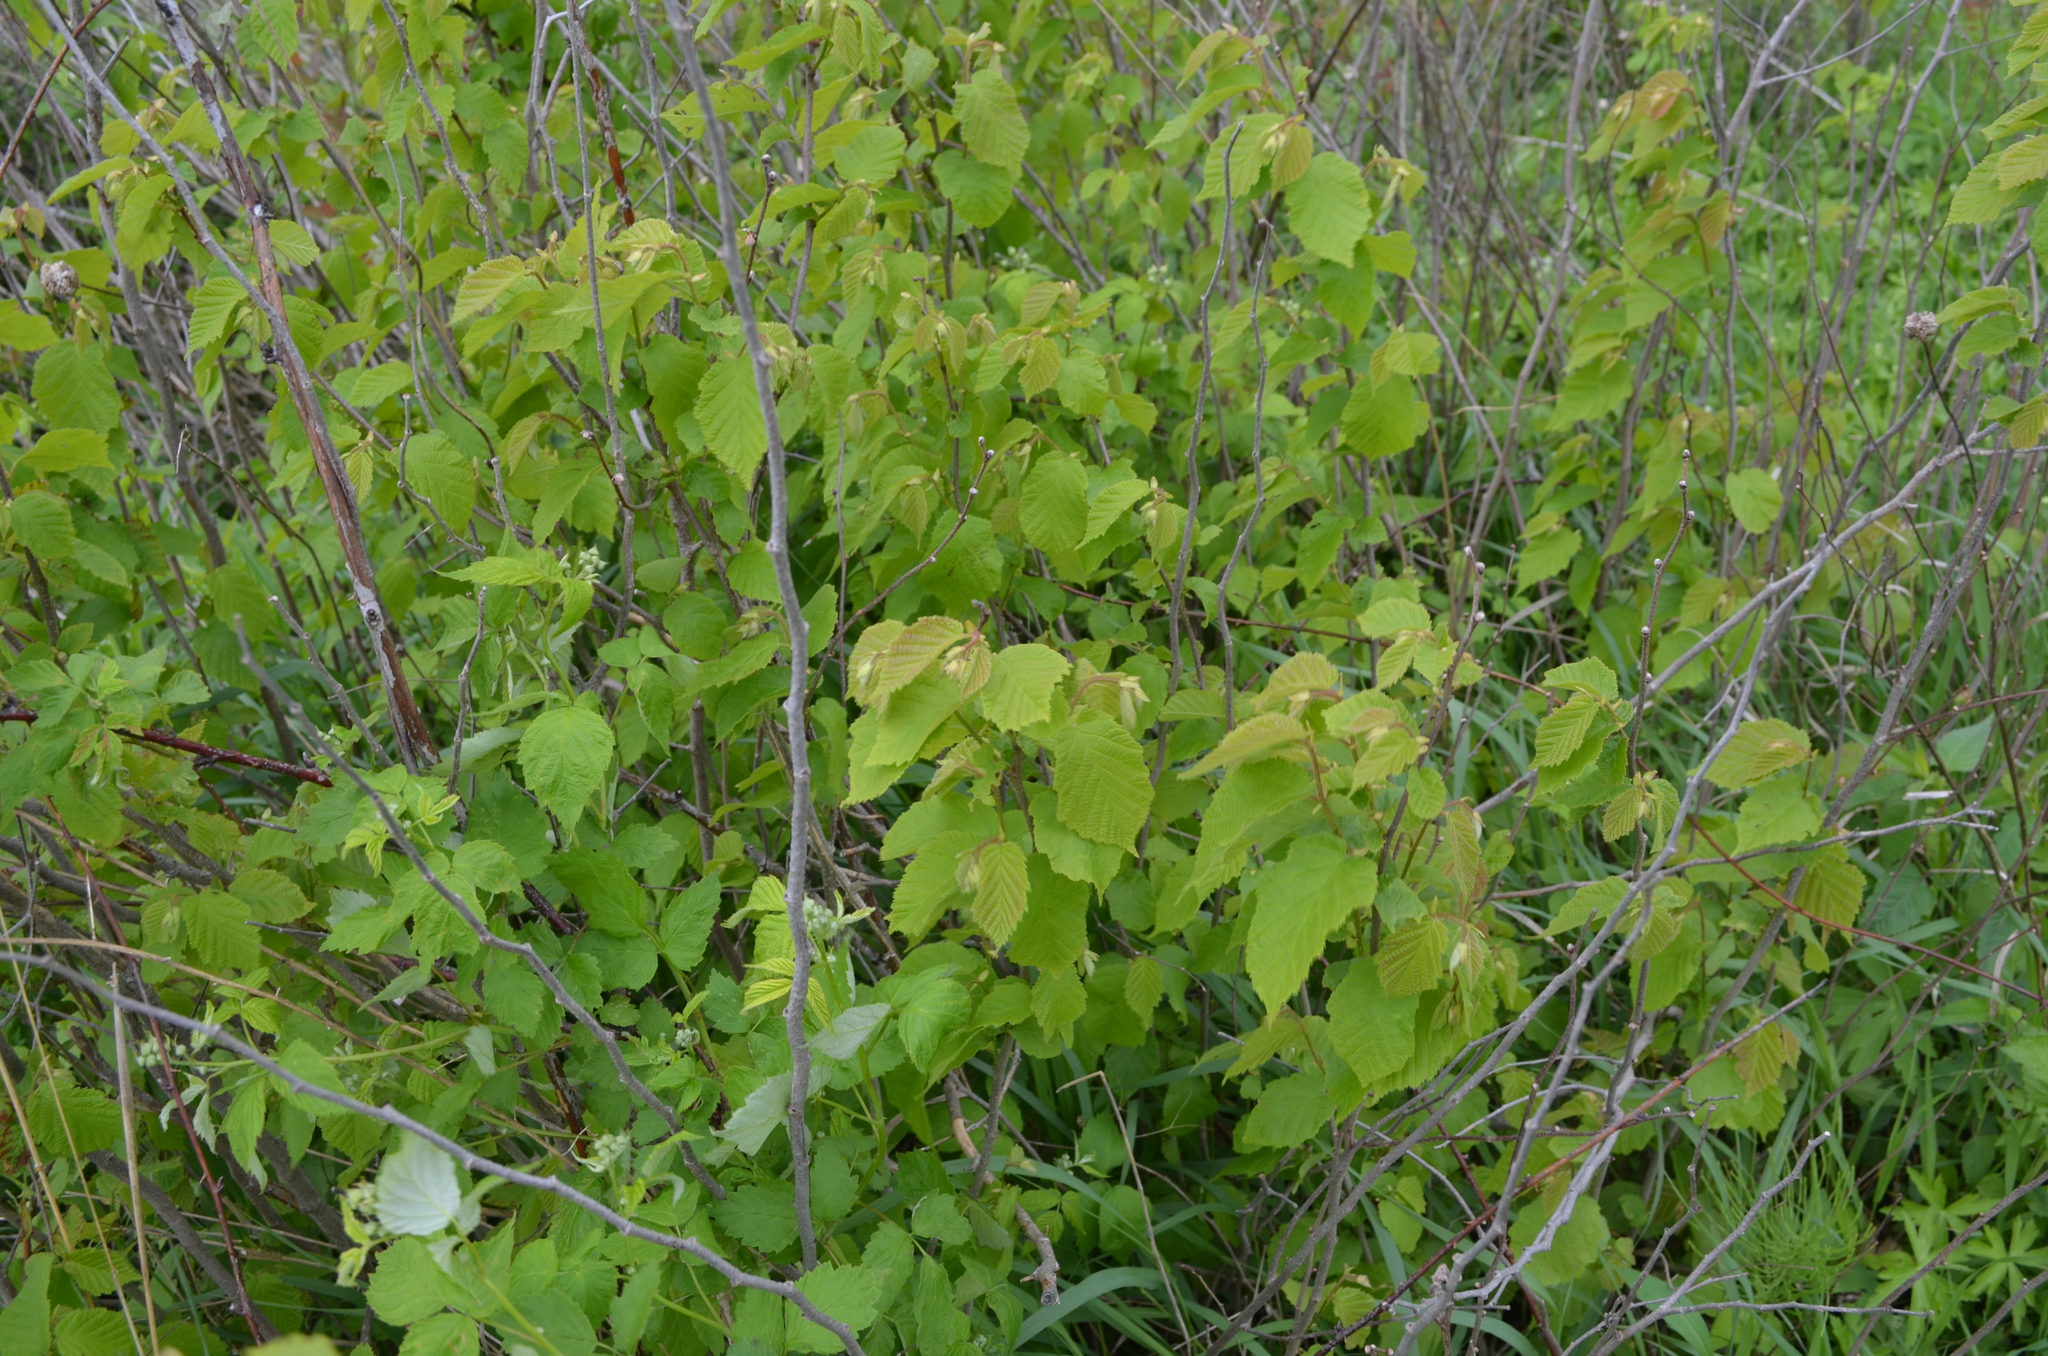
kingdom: Plantae
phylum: Tracheophyta
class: Magnoliopsida
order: Fagales
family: Betulaceae
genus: Corylus
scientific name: Corylus americana
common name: American hazel
